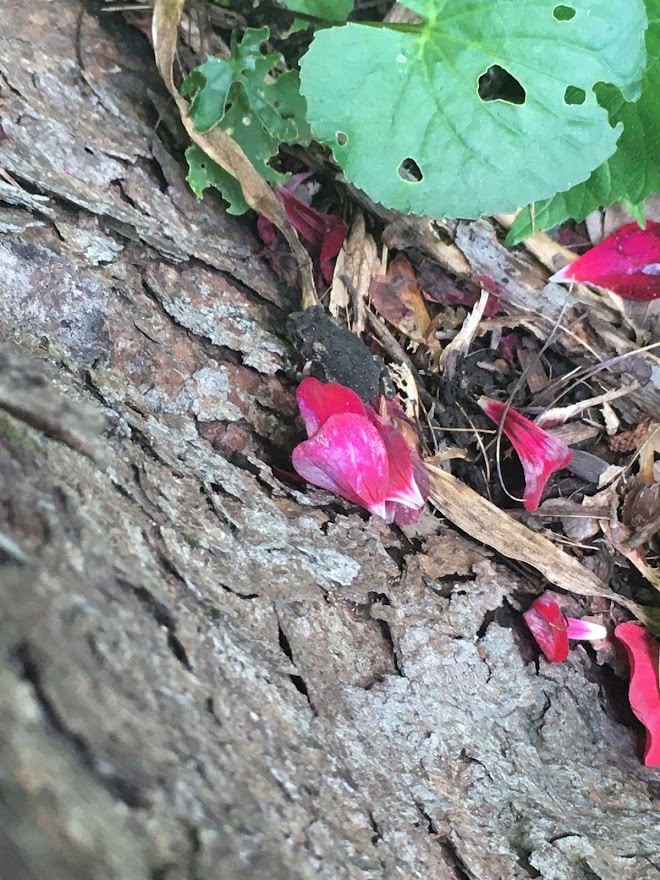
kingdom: Animalia
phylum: Chordata
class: Amphibia
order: Anura
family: Bufonidae
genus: Anaxyrus
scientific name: Anaxyrus fowleri
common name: Fowler's toad
